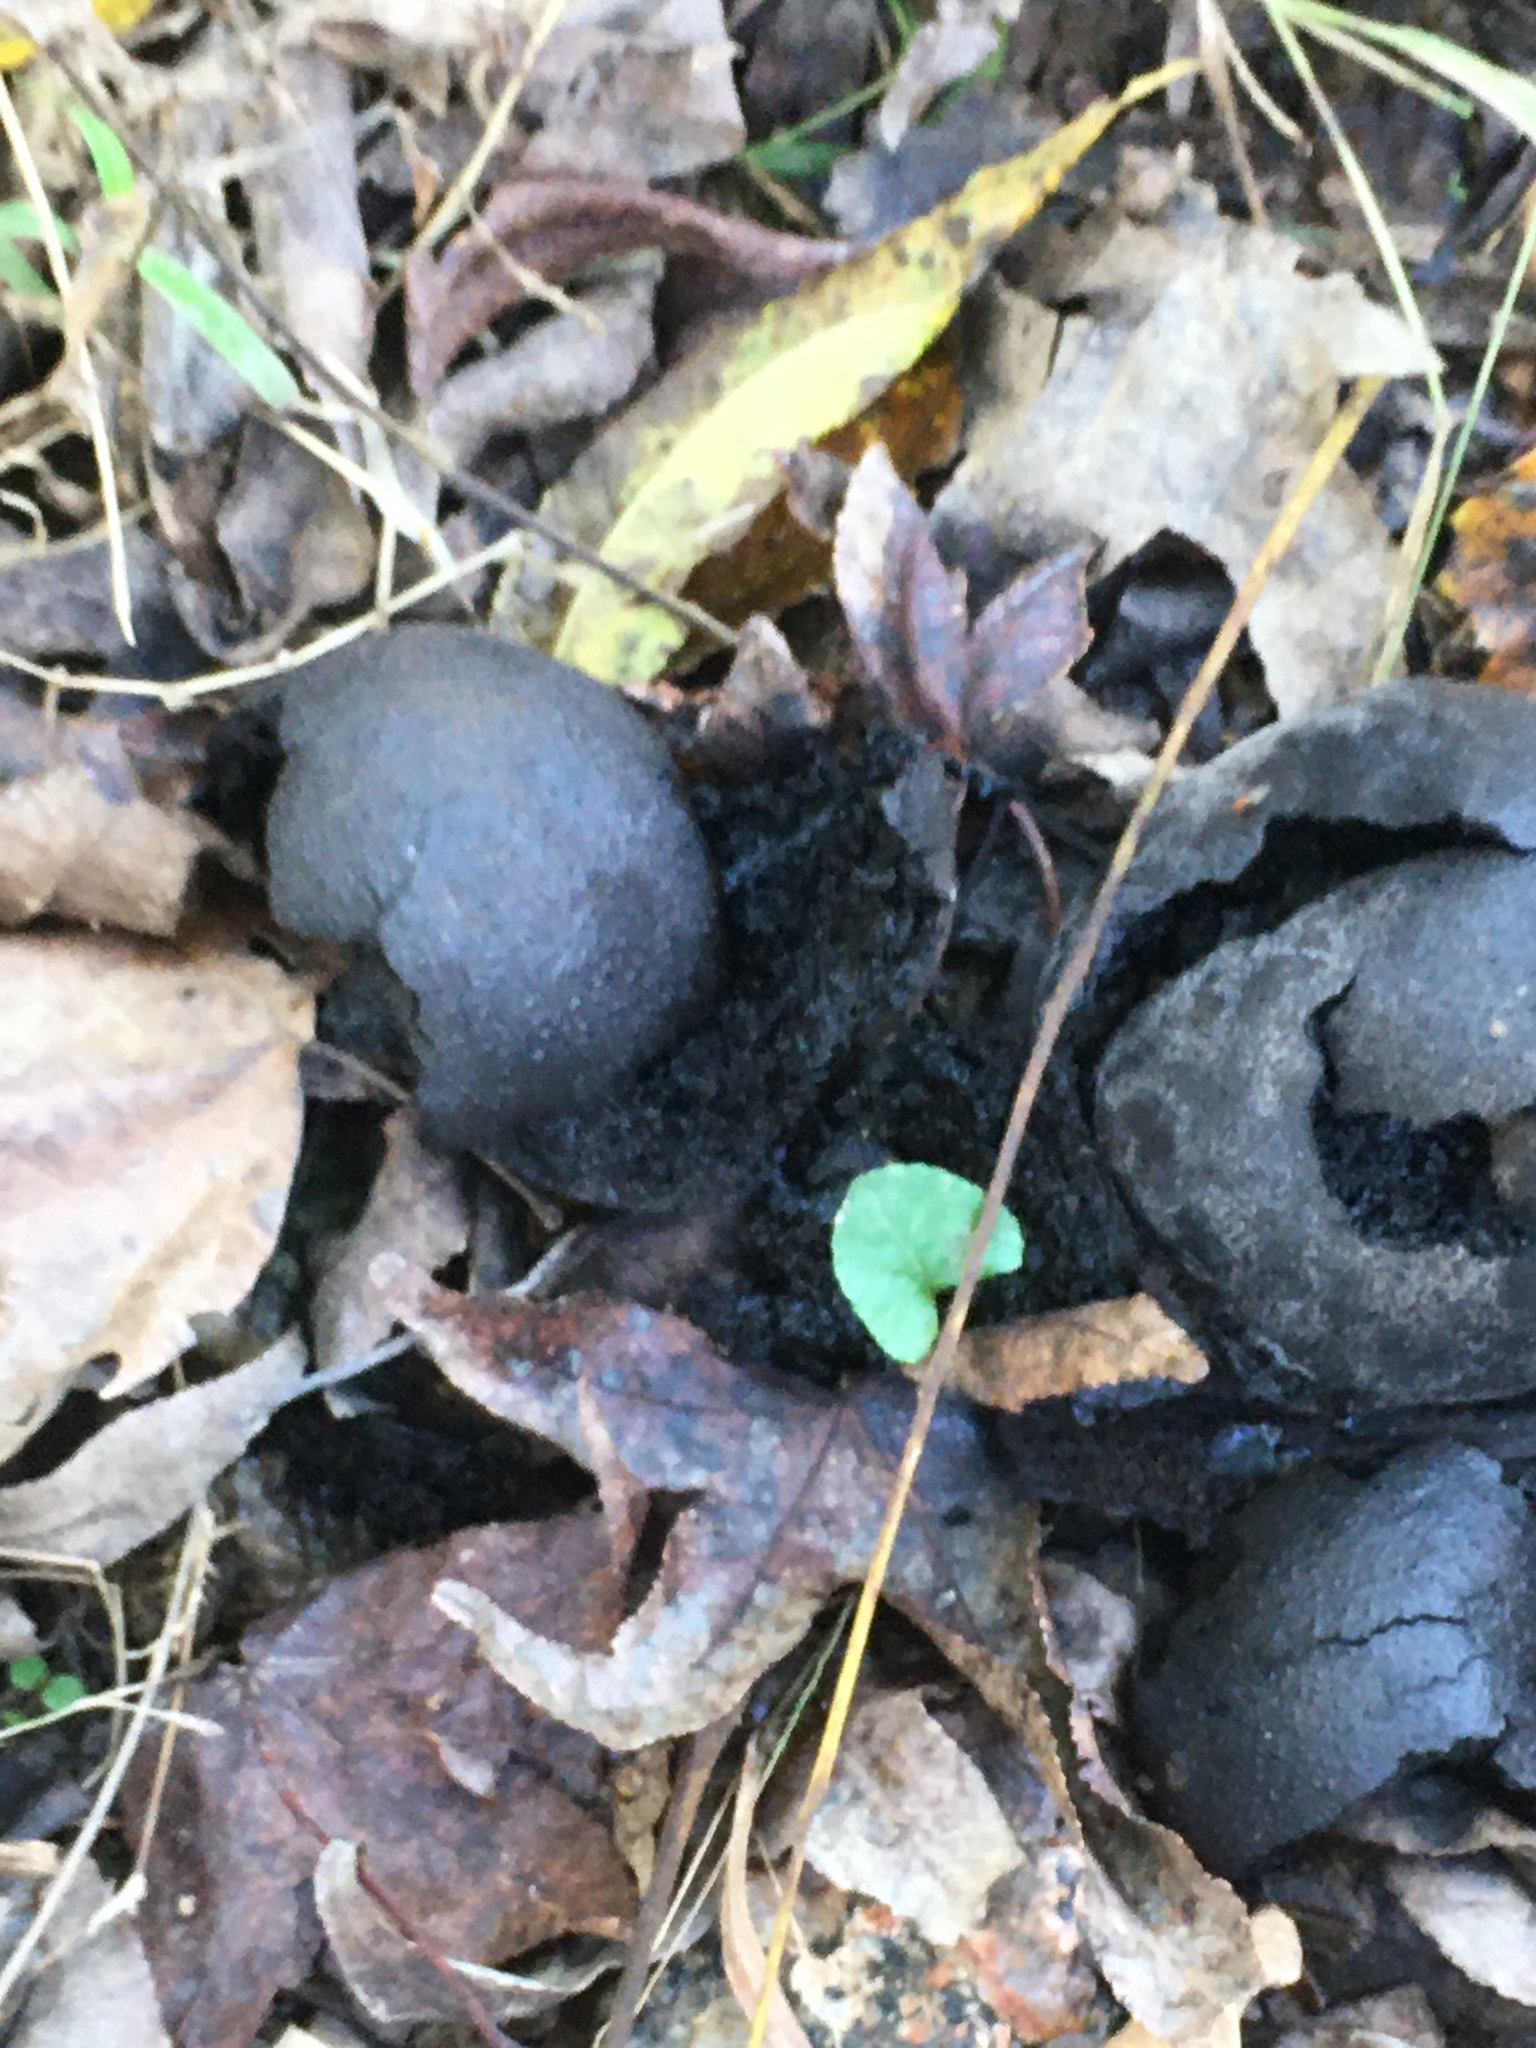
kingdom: Plantae
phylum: Tracheophyta
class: Magnoliopsida
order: Fagales
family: Juglandaceae
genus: Juglans
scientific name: Juglans nigra
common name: Black walnut
